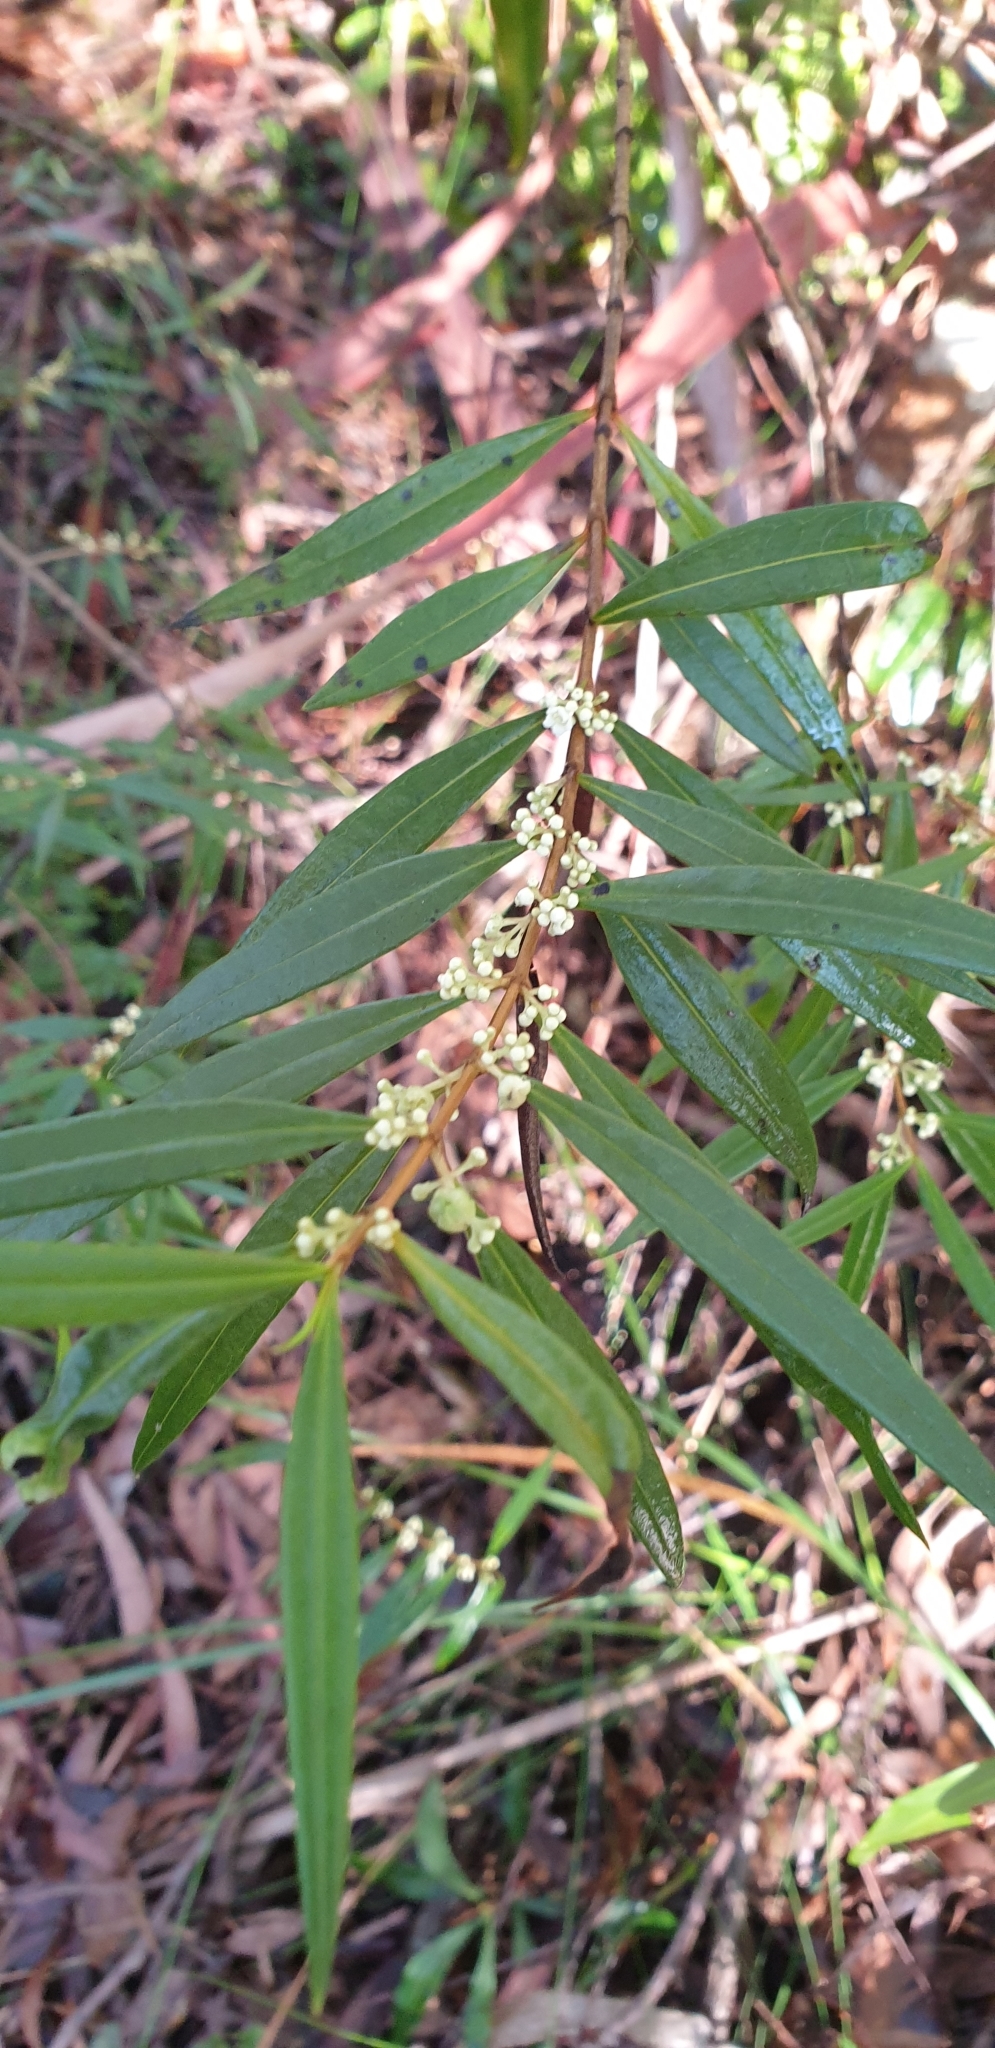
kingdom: Plantae
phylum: Tracheophyta
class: Magnoliopsida
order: Gentianales
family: Loganiaceae
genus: Logania
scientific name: Logania albiflora
